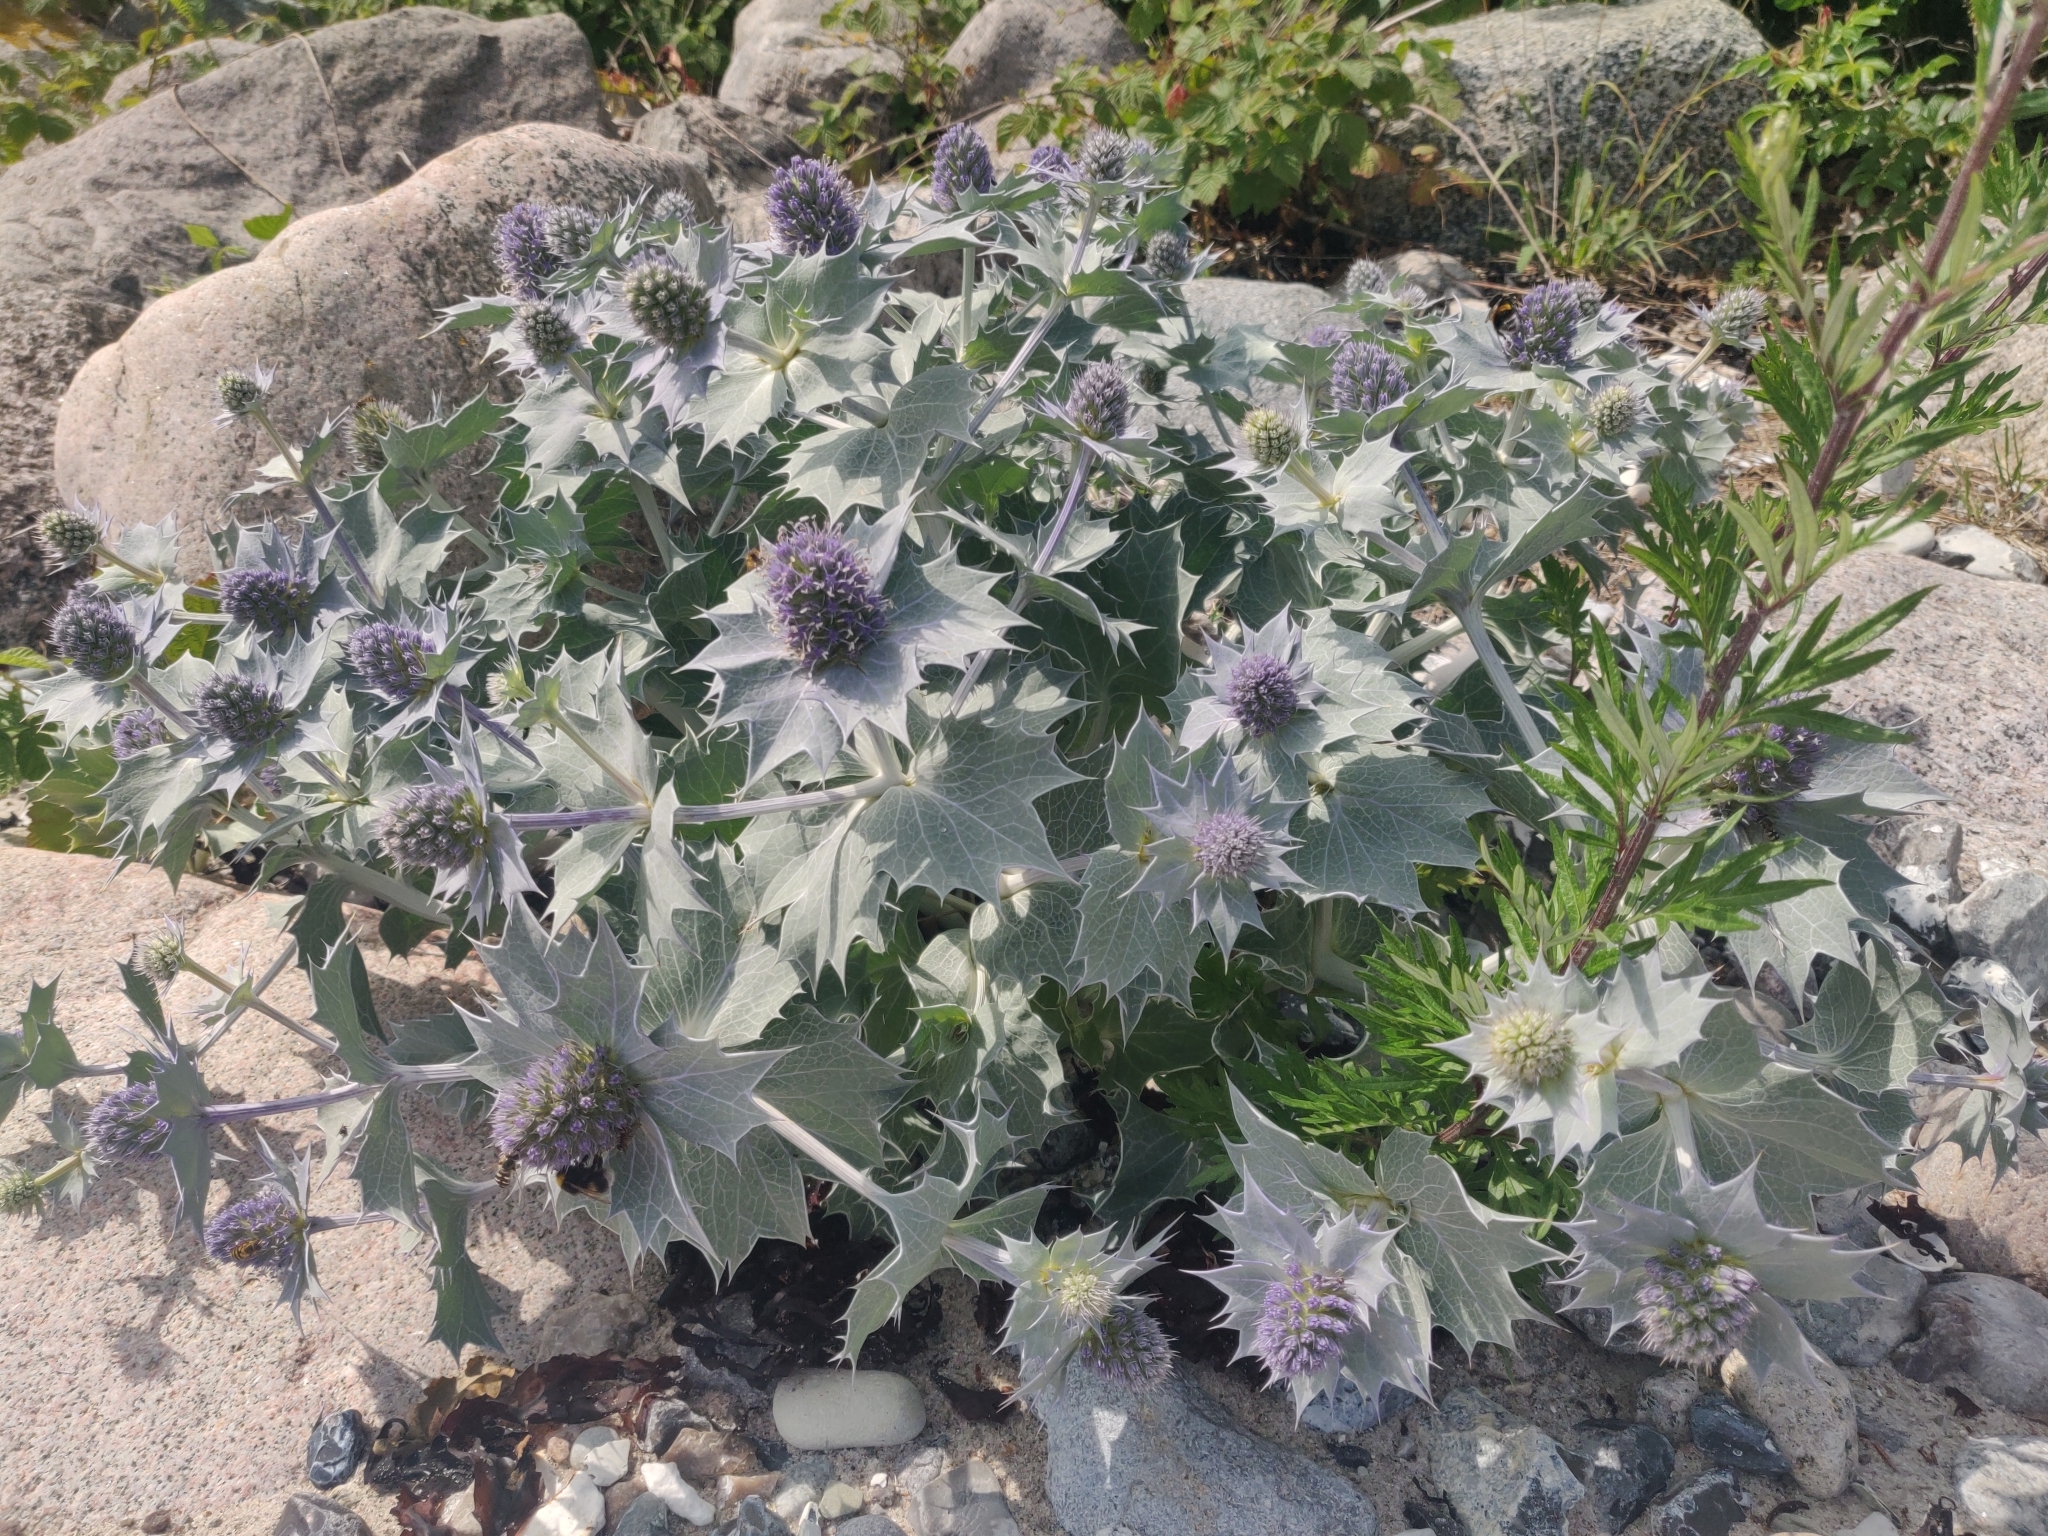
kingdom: Plantae
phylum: Tracheophyta
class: Magnoliopsida
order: Apiales
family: Apiaceae
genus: Eryngium
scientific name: Eryngium maritimum
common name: Sea-holly
